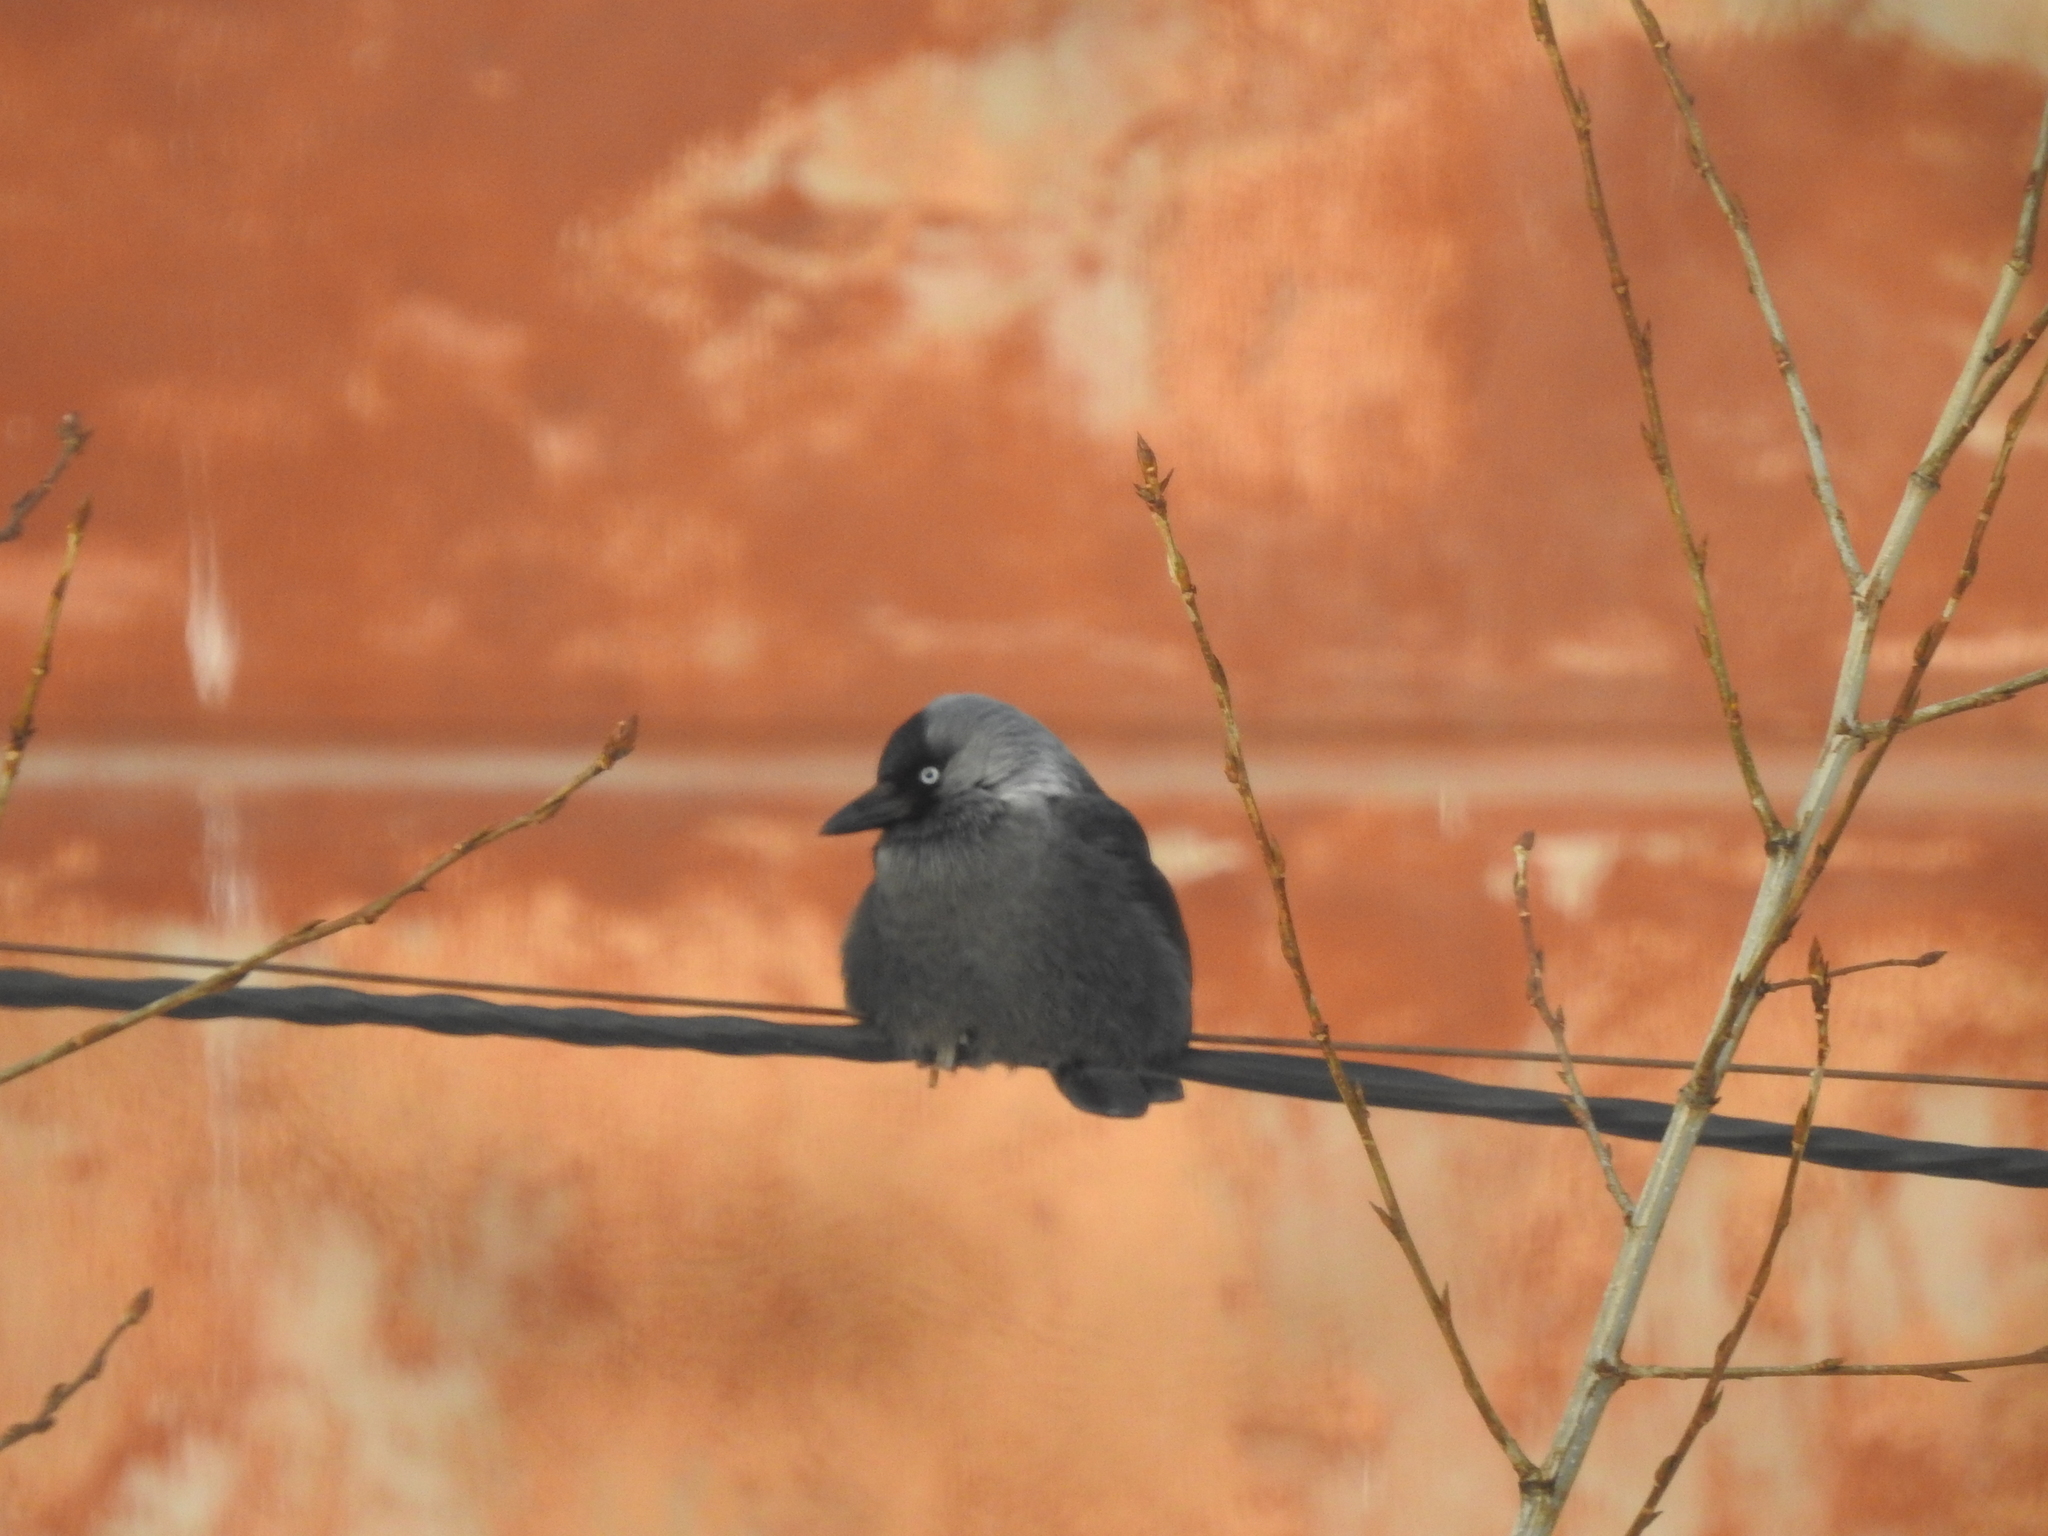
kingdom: Animalia
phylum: Chordata
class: Aves
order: Passeriformes
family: Corvidae
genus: Coloeus
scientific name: Coloeus monedula
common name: Western jackdaw
